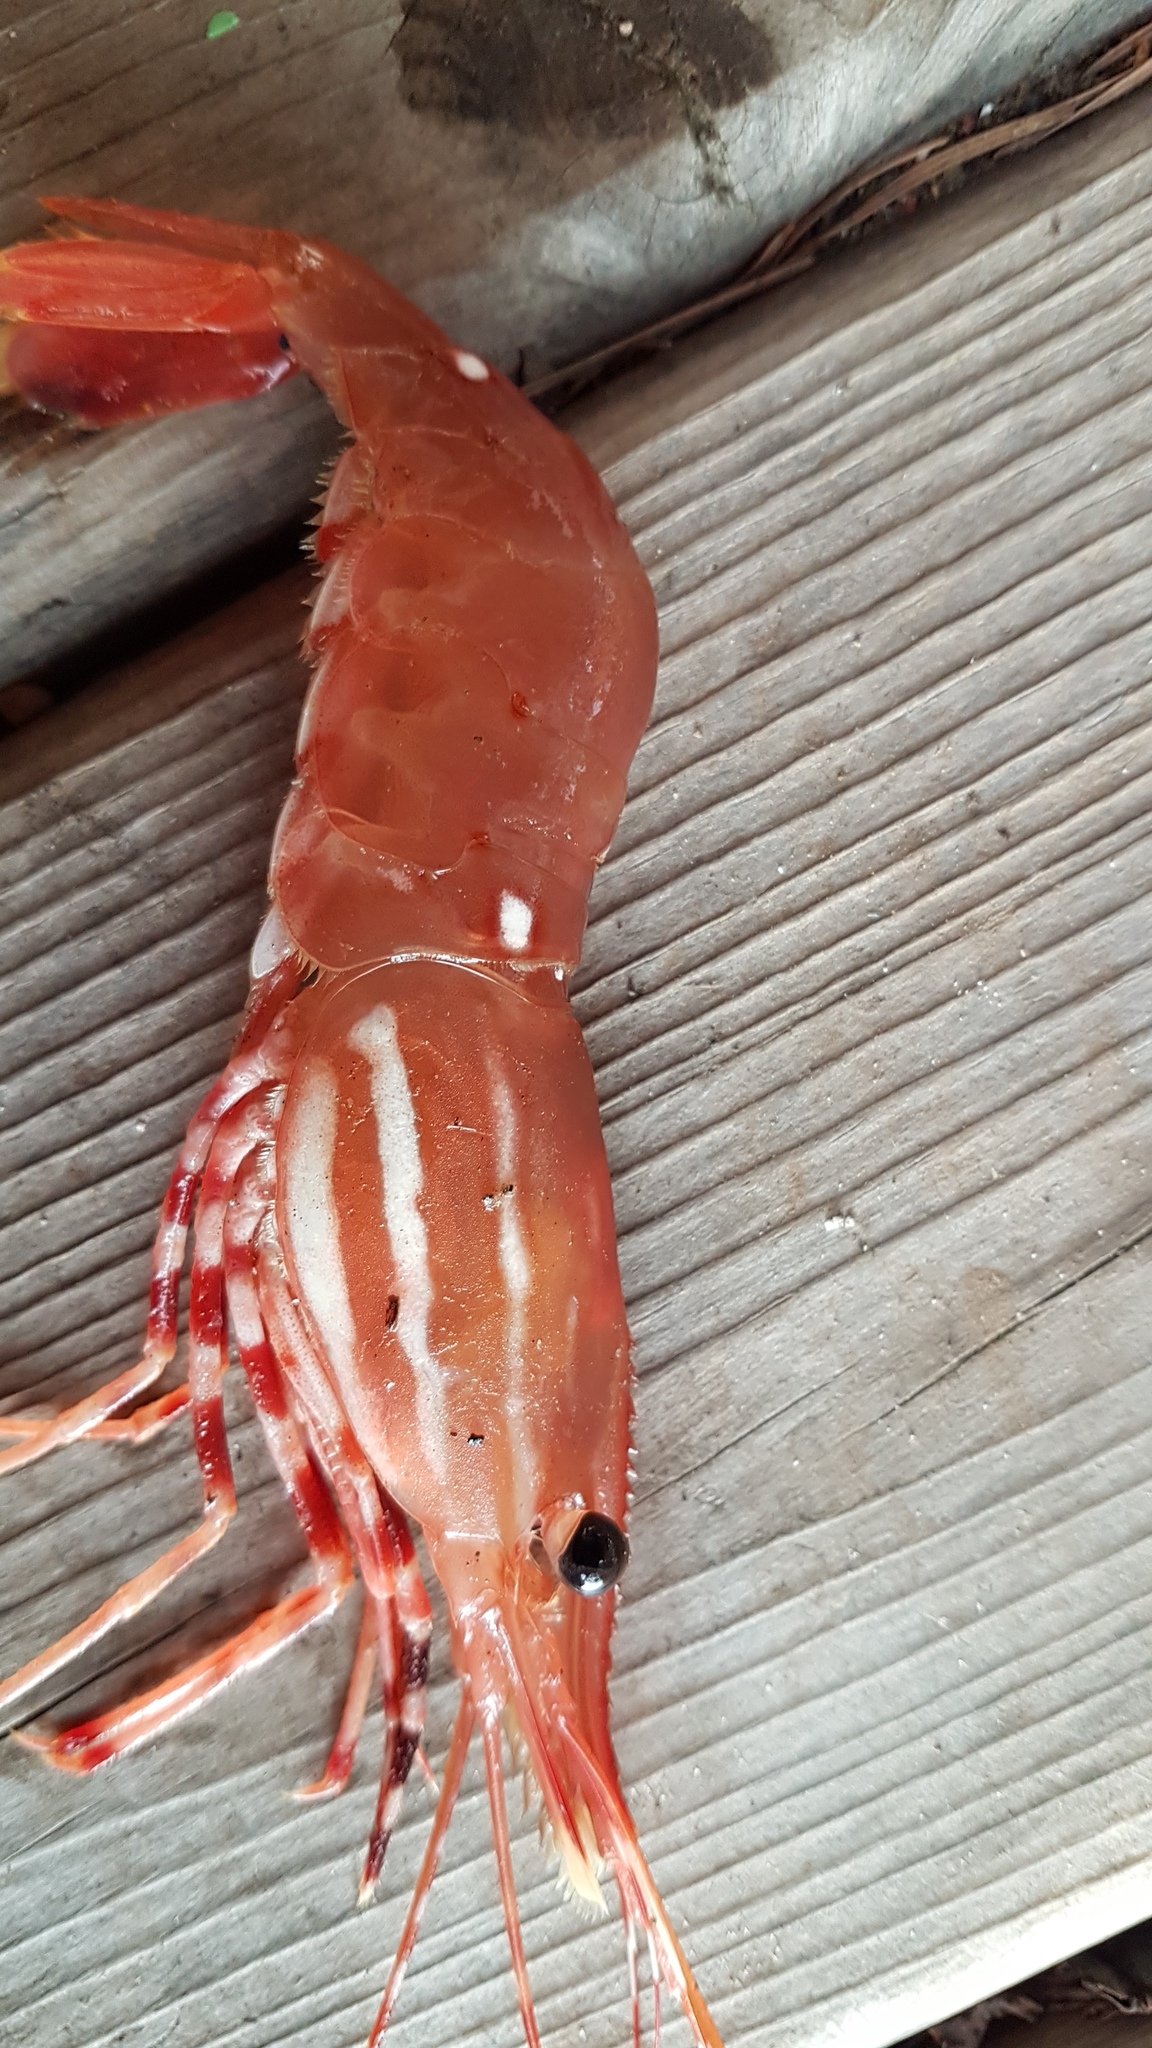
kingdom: Animalia
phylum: Arthropoda
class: Malacostraca
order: Decapoda
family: Pandalidae
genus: Pandalus
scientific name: Pandalus platyceros
